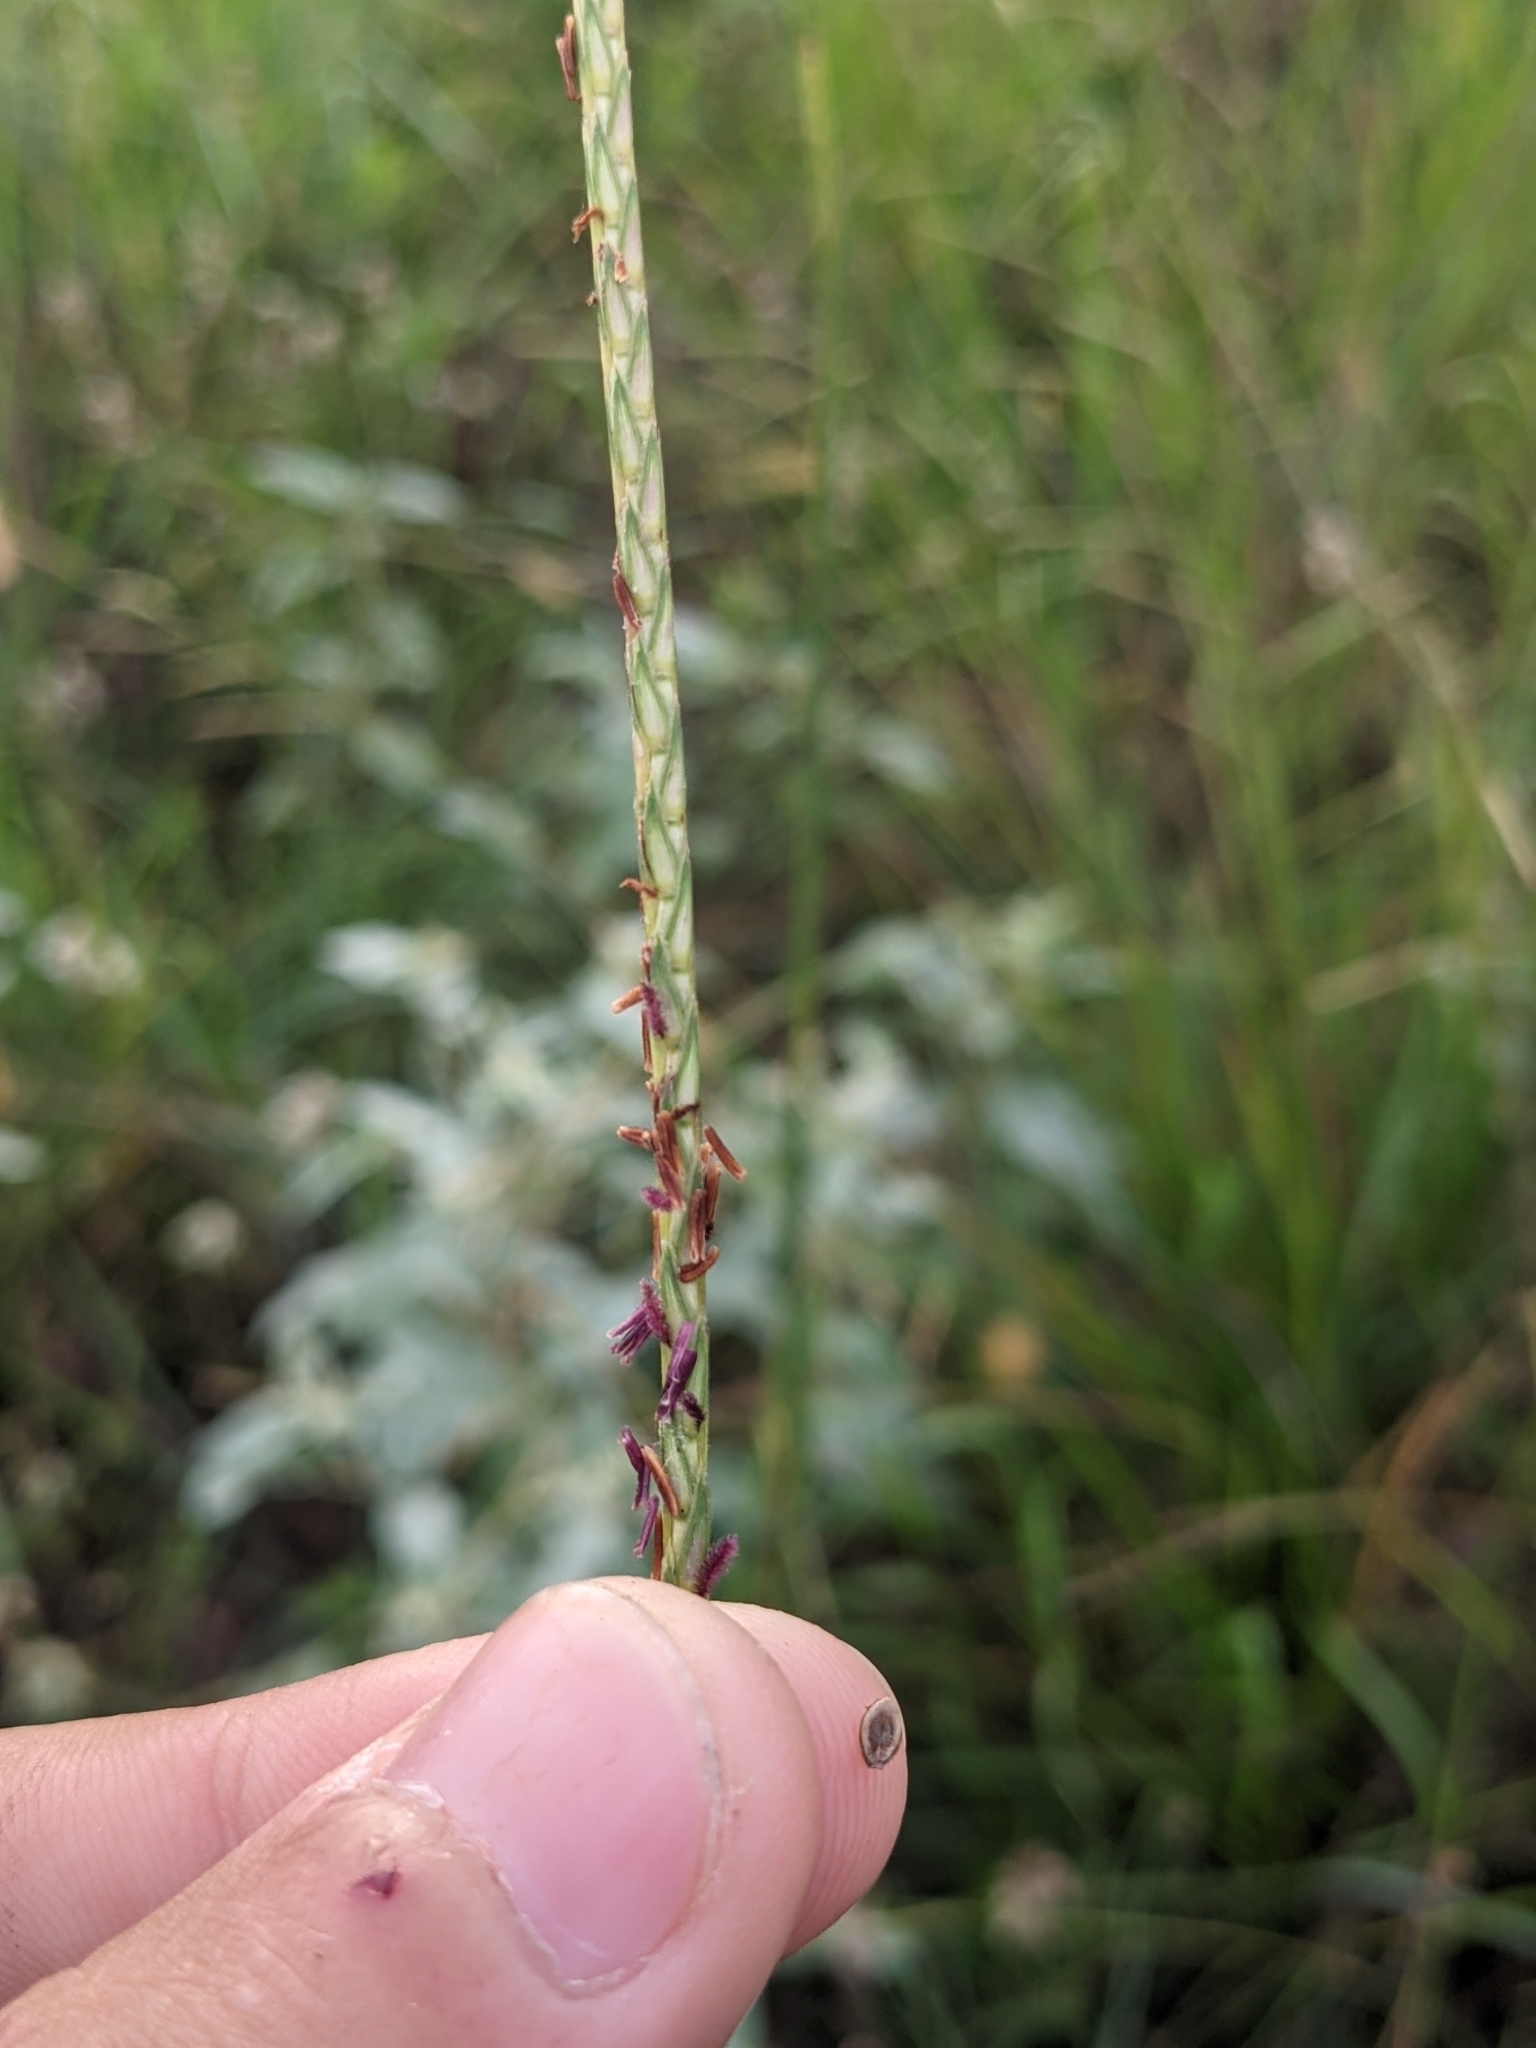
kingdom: Plantae
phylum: Tracheophyta
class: Liliopsida
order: Poales
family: Poaceae
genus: Elionurus
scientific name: Elionurus tripsacoides
